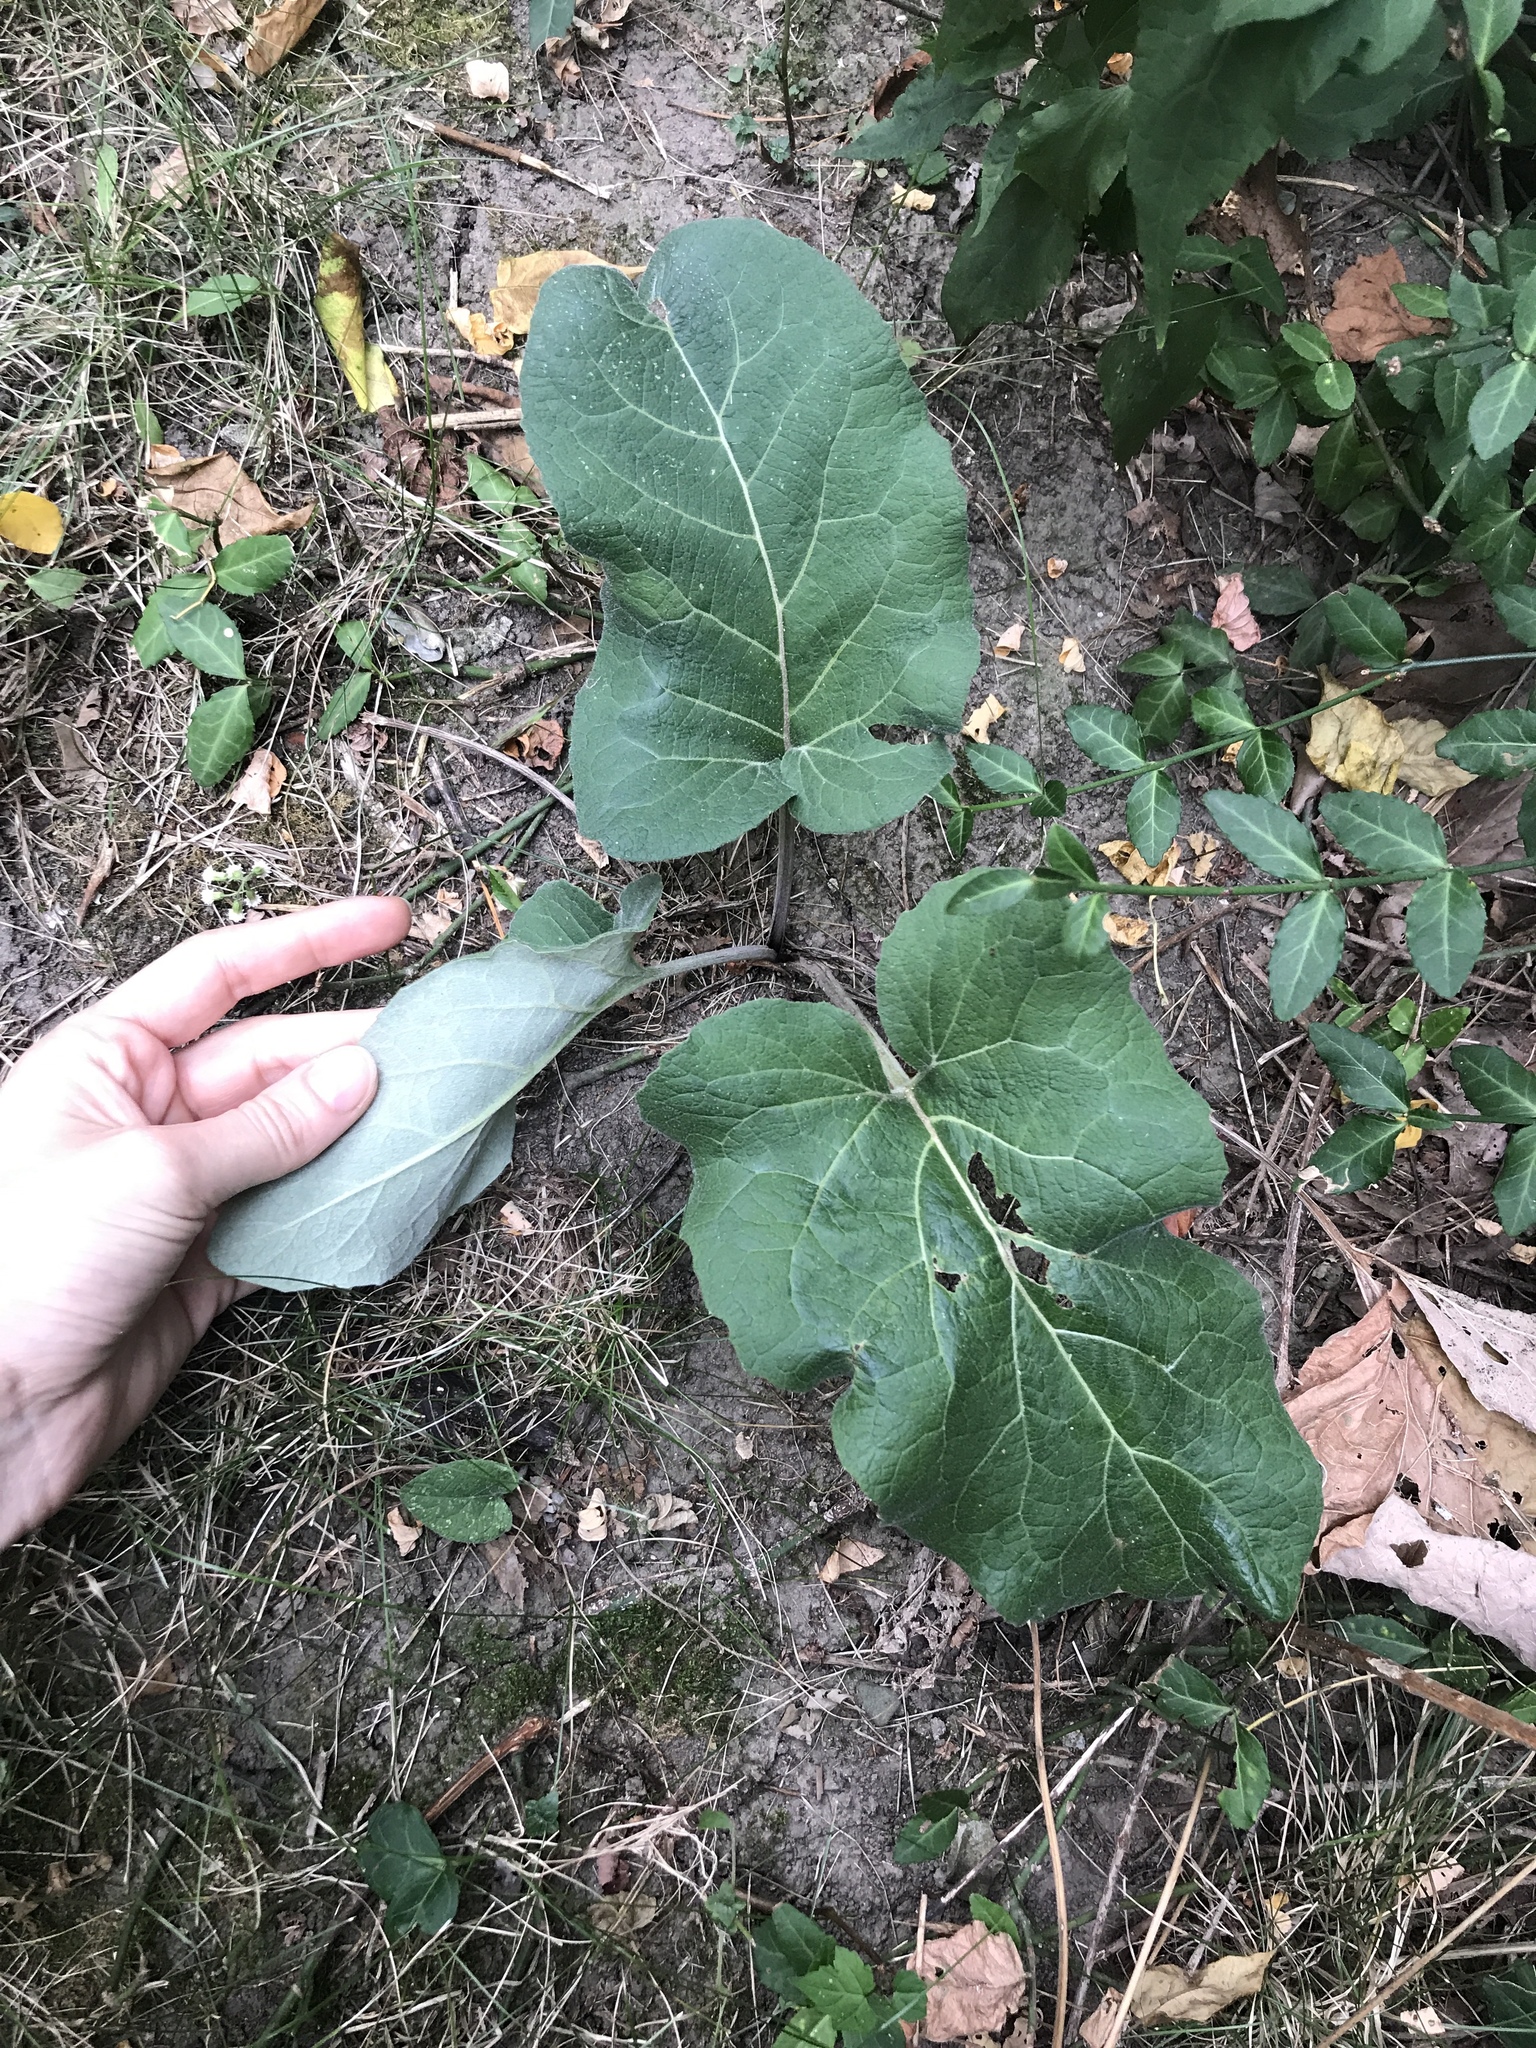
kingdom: Plantae
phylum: Tracheophyta
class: Magnoliopsida
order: Asterales
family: Asteraceae
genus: Arctium
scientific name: Arctium
